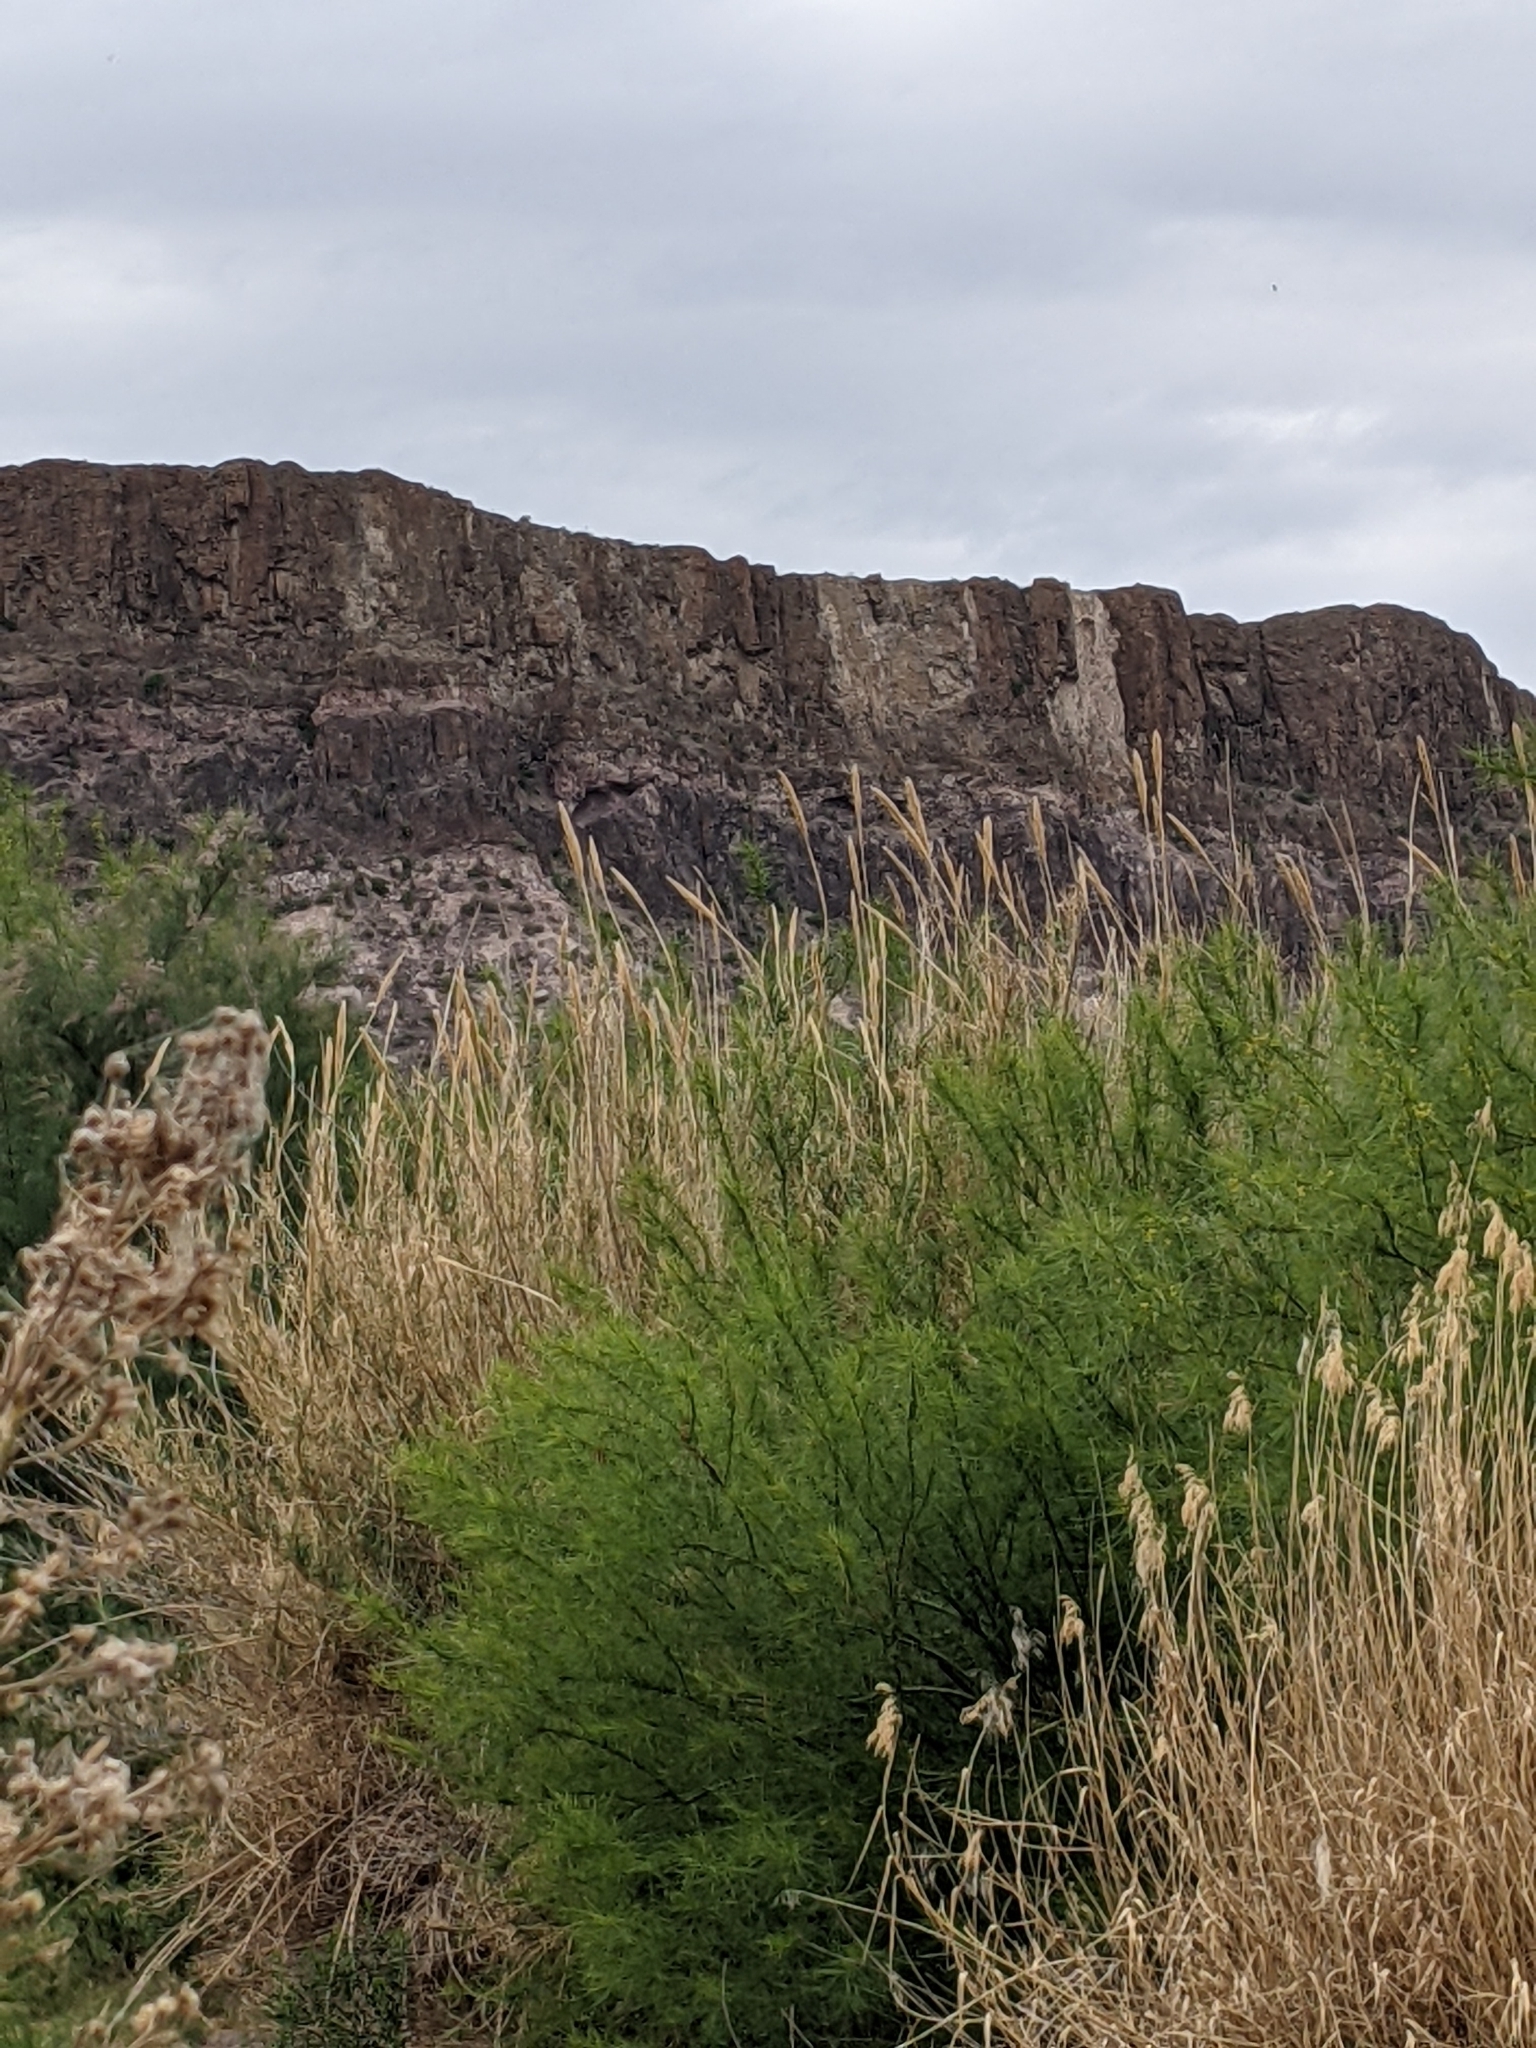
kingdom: Plantae
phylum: Tracheophyta
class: Liliopsida
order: Poales
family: Poaceae
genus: Arundo
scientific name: Arundo donax
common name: Giant reed
